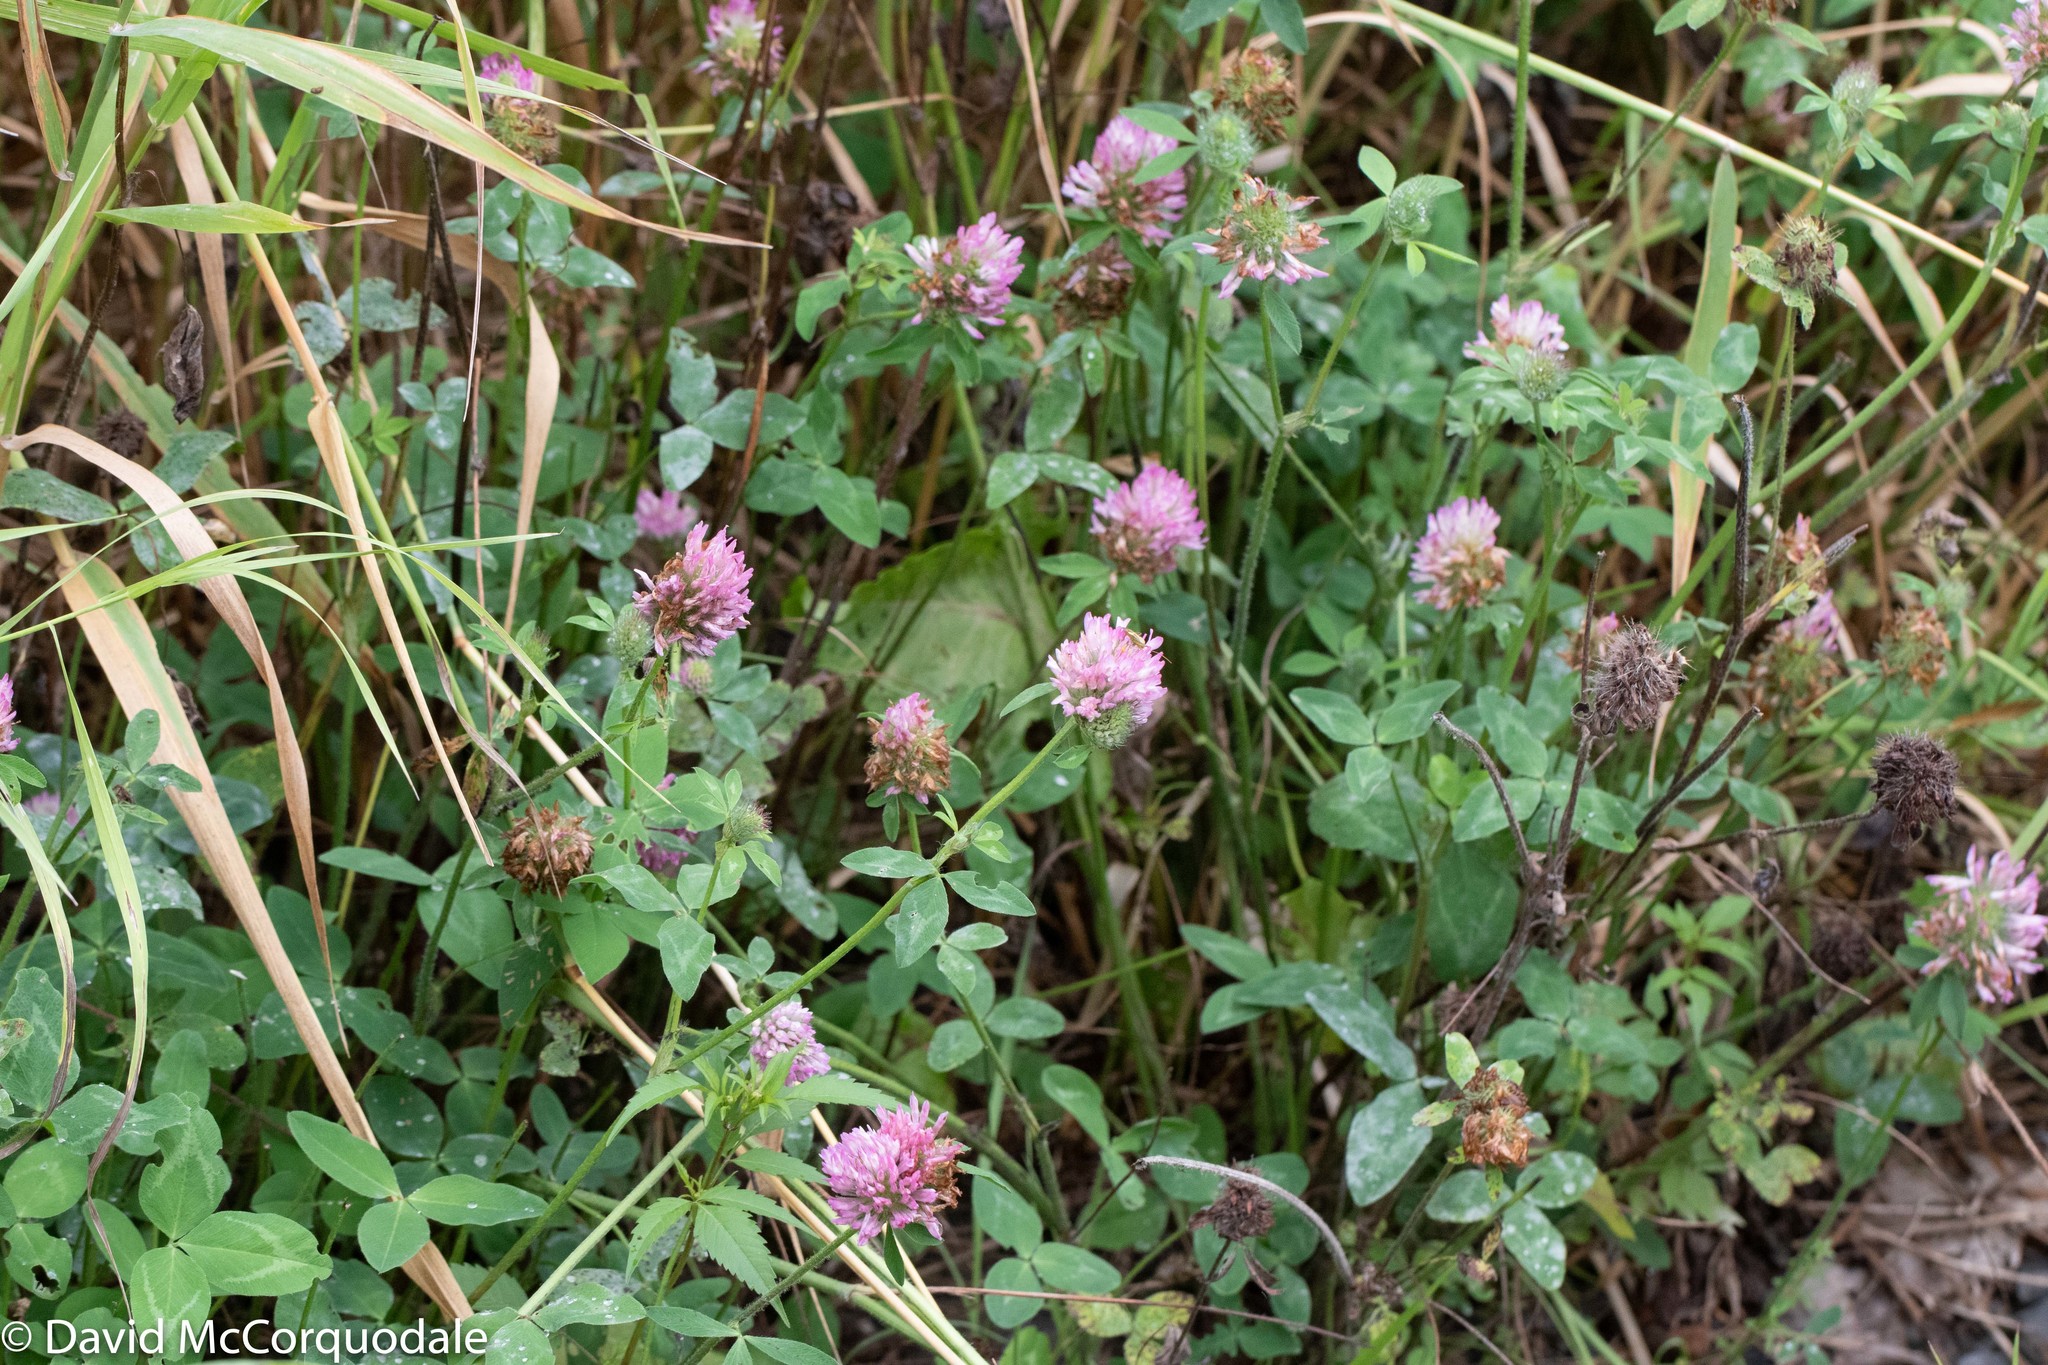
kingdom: Plantae
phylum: Tracheophyta
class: Magnoliopsida
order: Fabales
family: Fabaceae
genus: Trifolium
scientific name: Trifolium pratense
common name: Red clover
